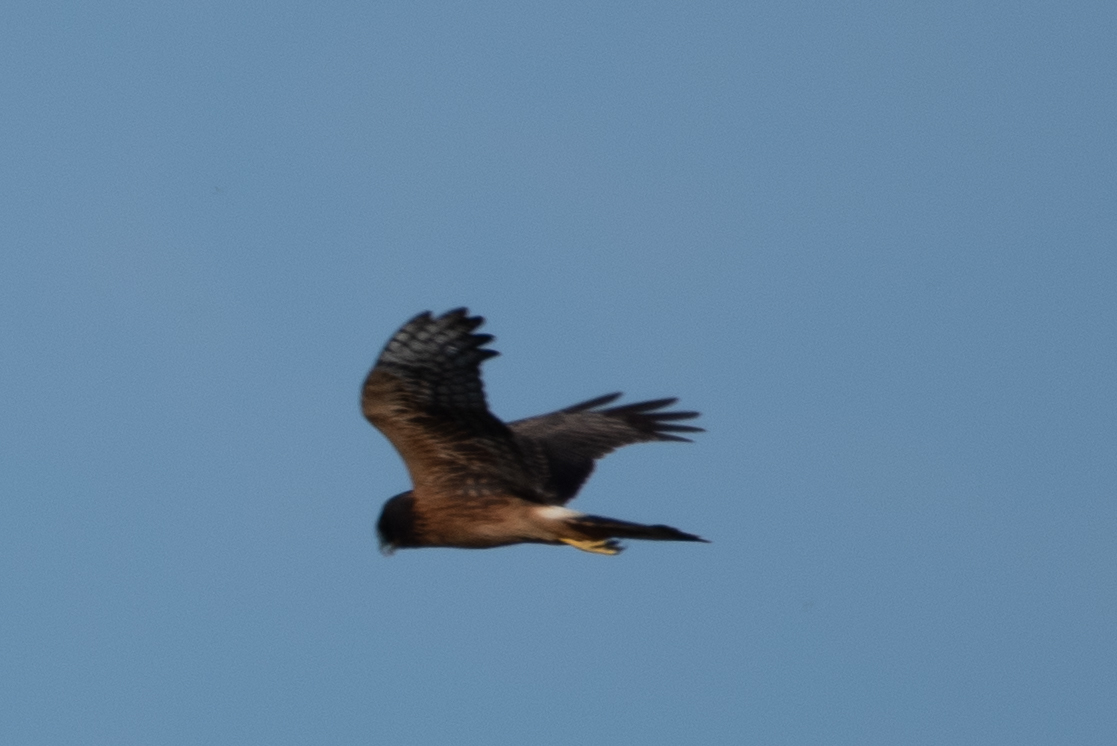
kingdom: Animalia
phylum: Chordata
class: Aves
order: Accipitriformes
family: Accipitridae
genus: Circus
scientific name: Circus cyaneus
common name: Hen harrier
